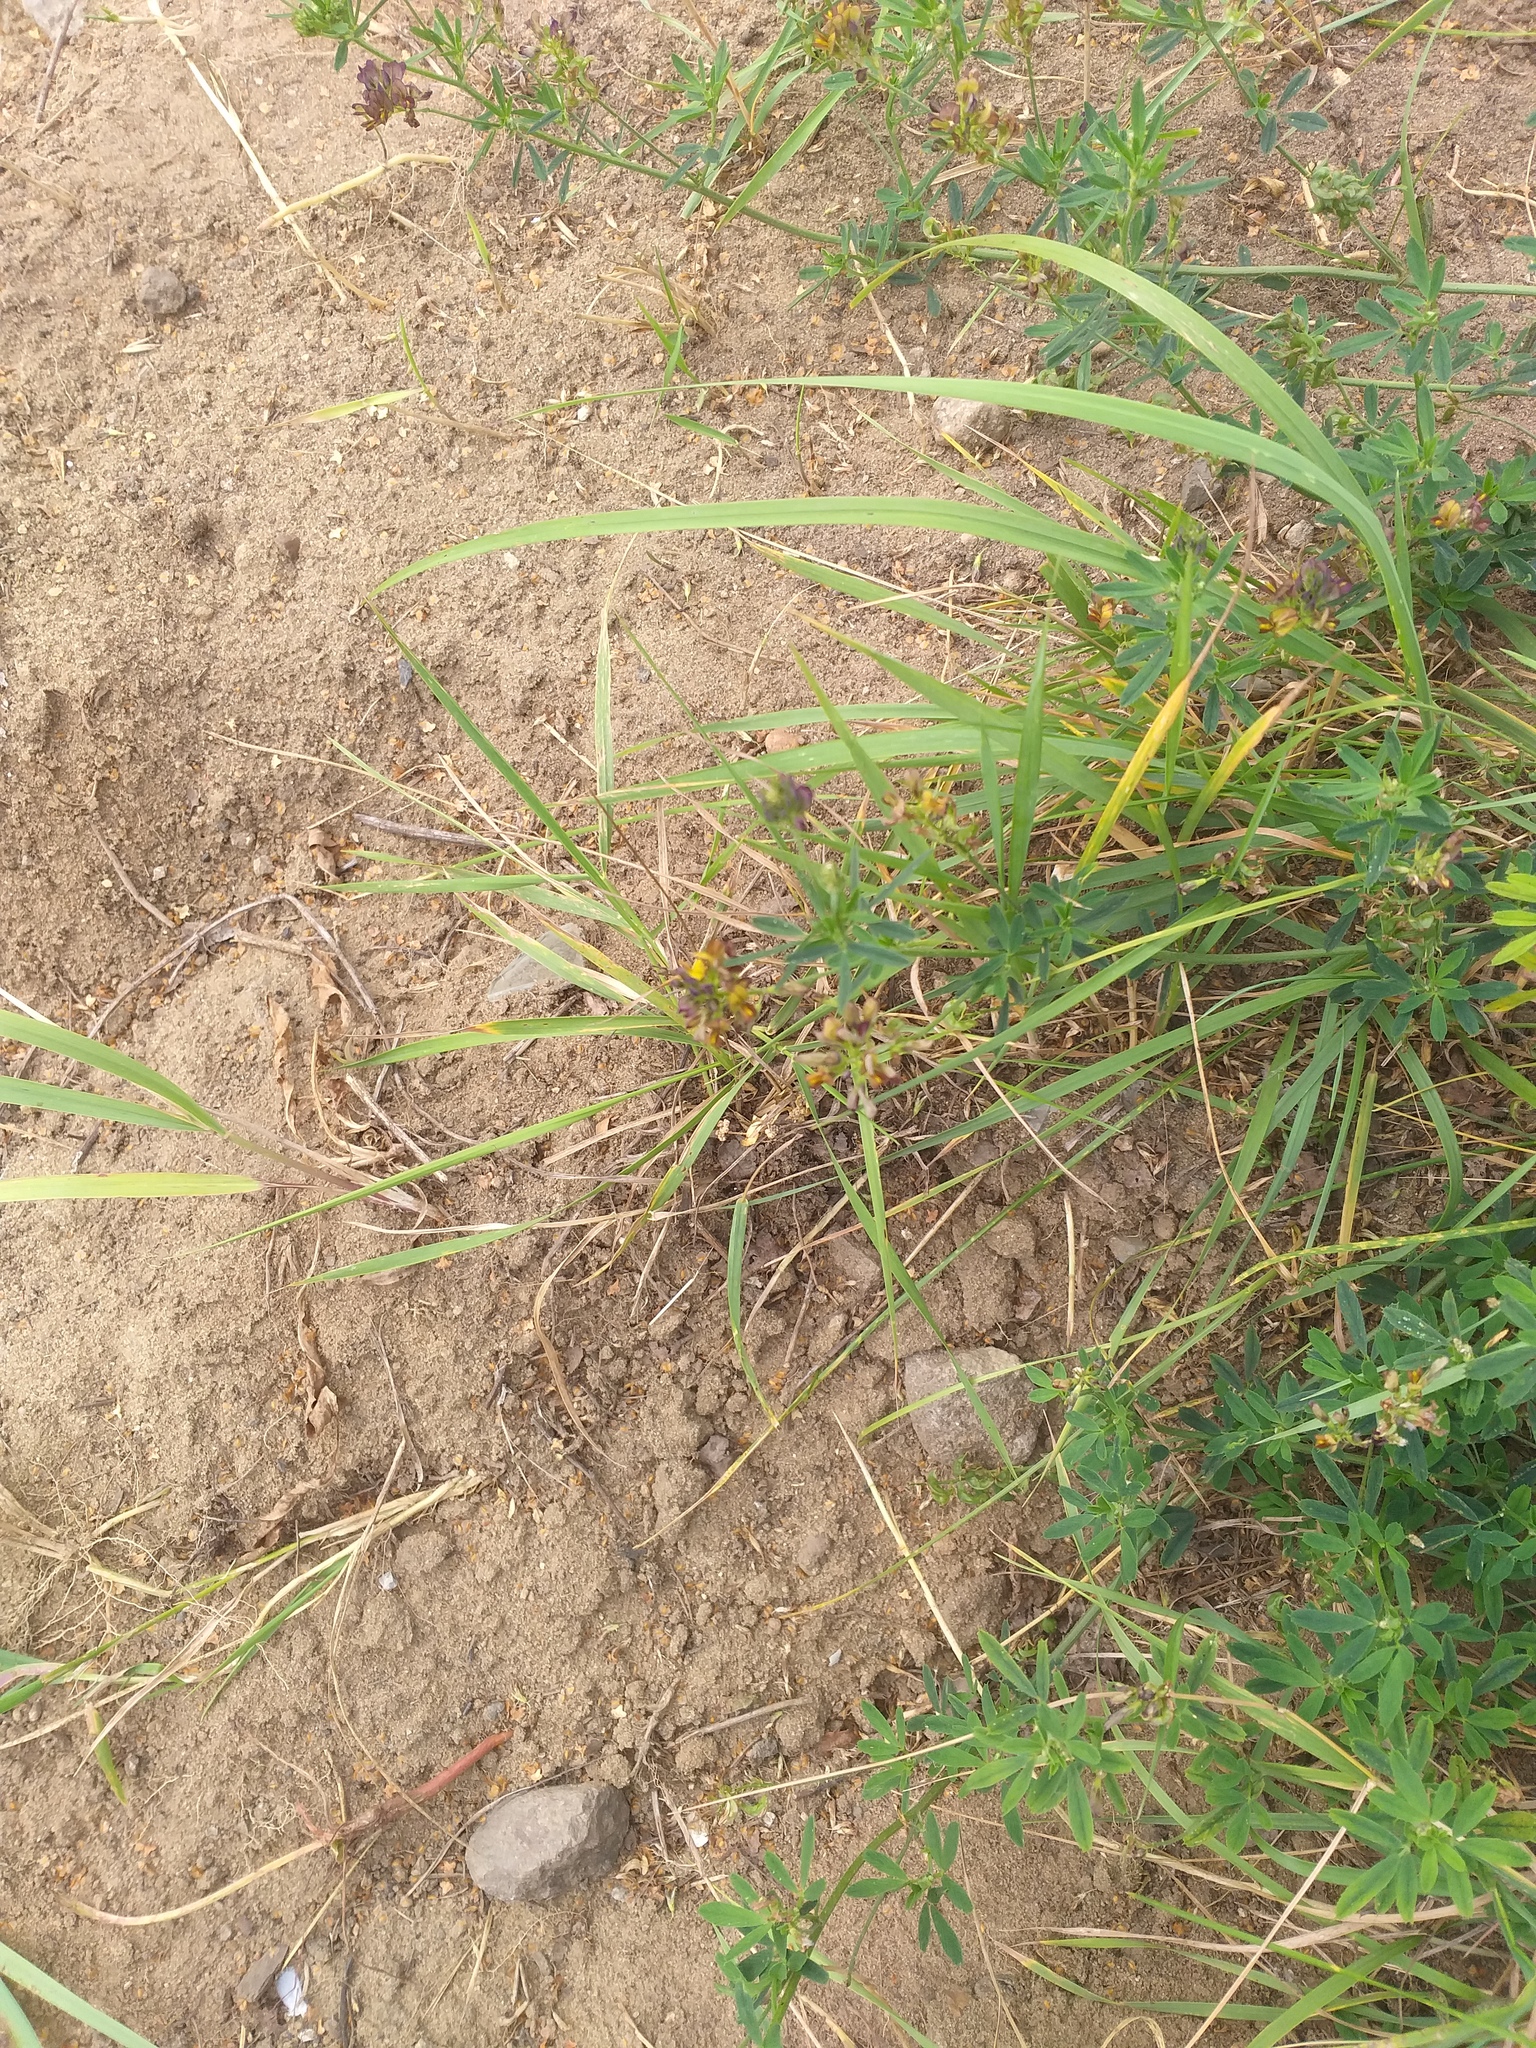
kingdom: Plantae
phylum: Tracheophyta
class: Magnoliopsida
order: Fabales
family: Fabaceae
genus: Medicago
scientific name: Medicago varia
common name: Sand lucerne
